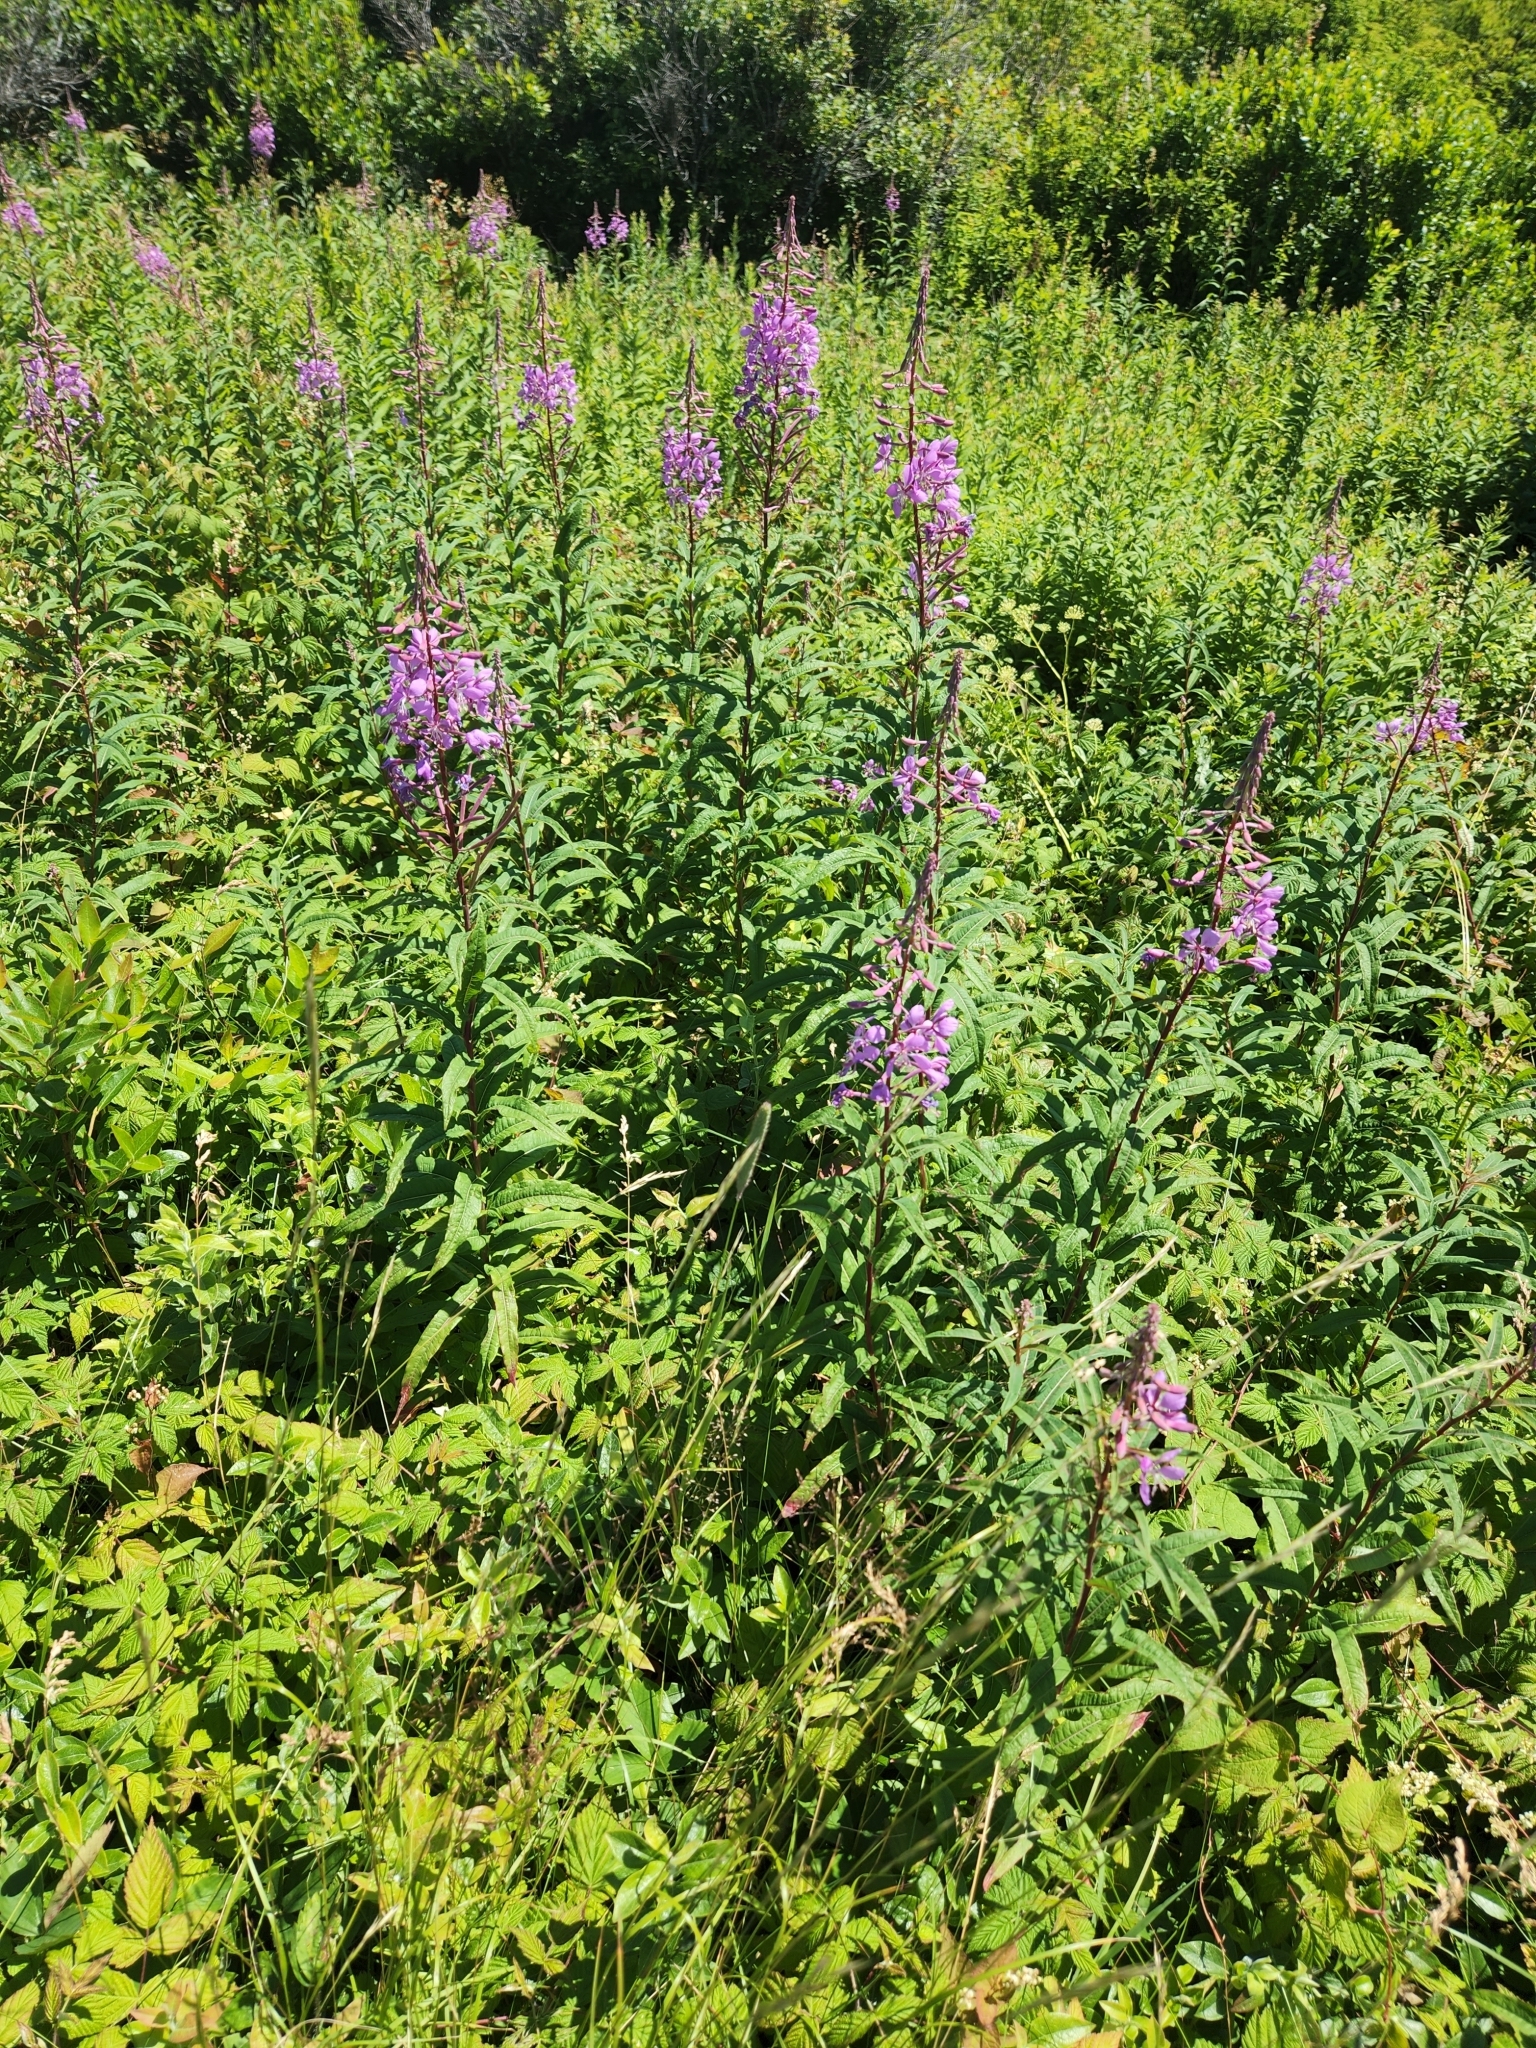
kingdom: Plantae
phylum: Tracheophyta
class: Magnoliopsida
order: Myrtales
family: Onagraceae
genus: Chamaenerion
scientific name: Chamaenerion angustifolium
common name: Fireweed
